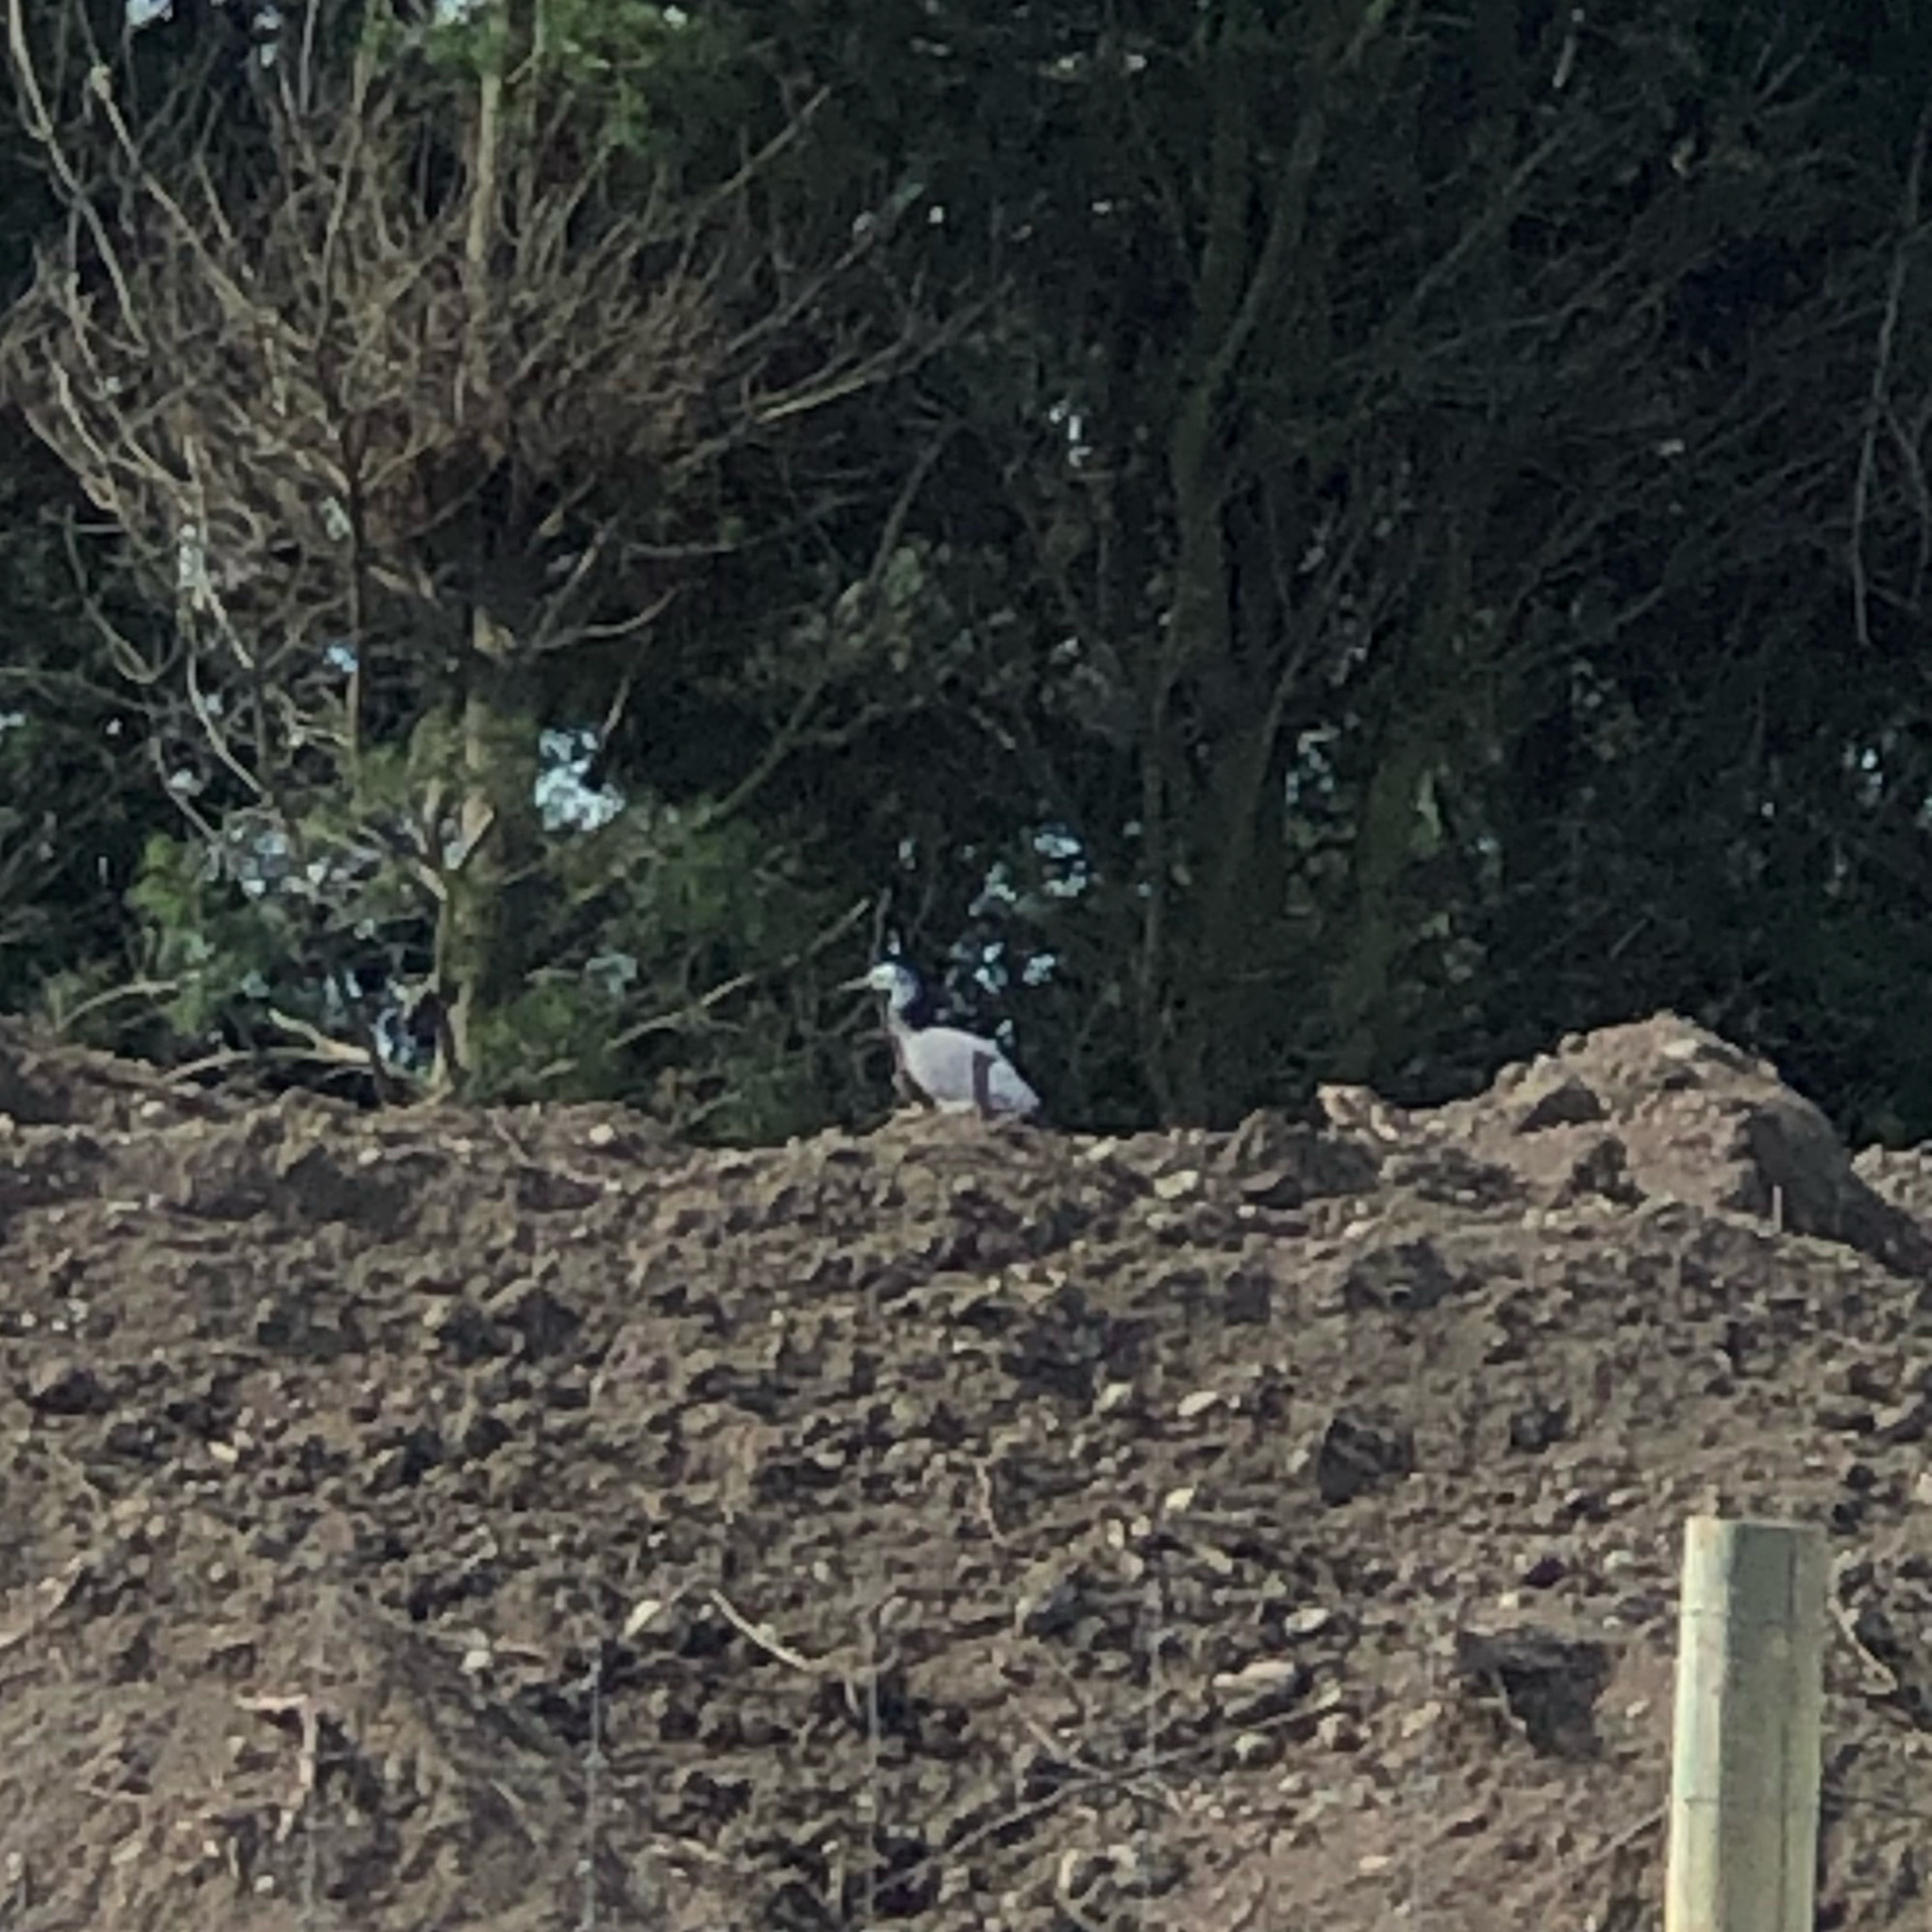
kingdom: Animalia
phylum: Chordata
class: Aves
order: Pelecaniformes
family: Ardeidae
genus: Egretta
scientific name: Egretta novaehollandiae
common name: White-faced heron
